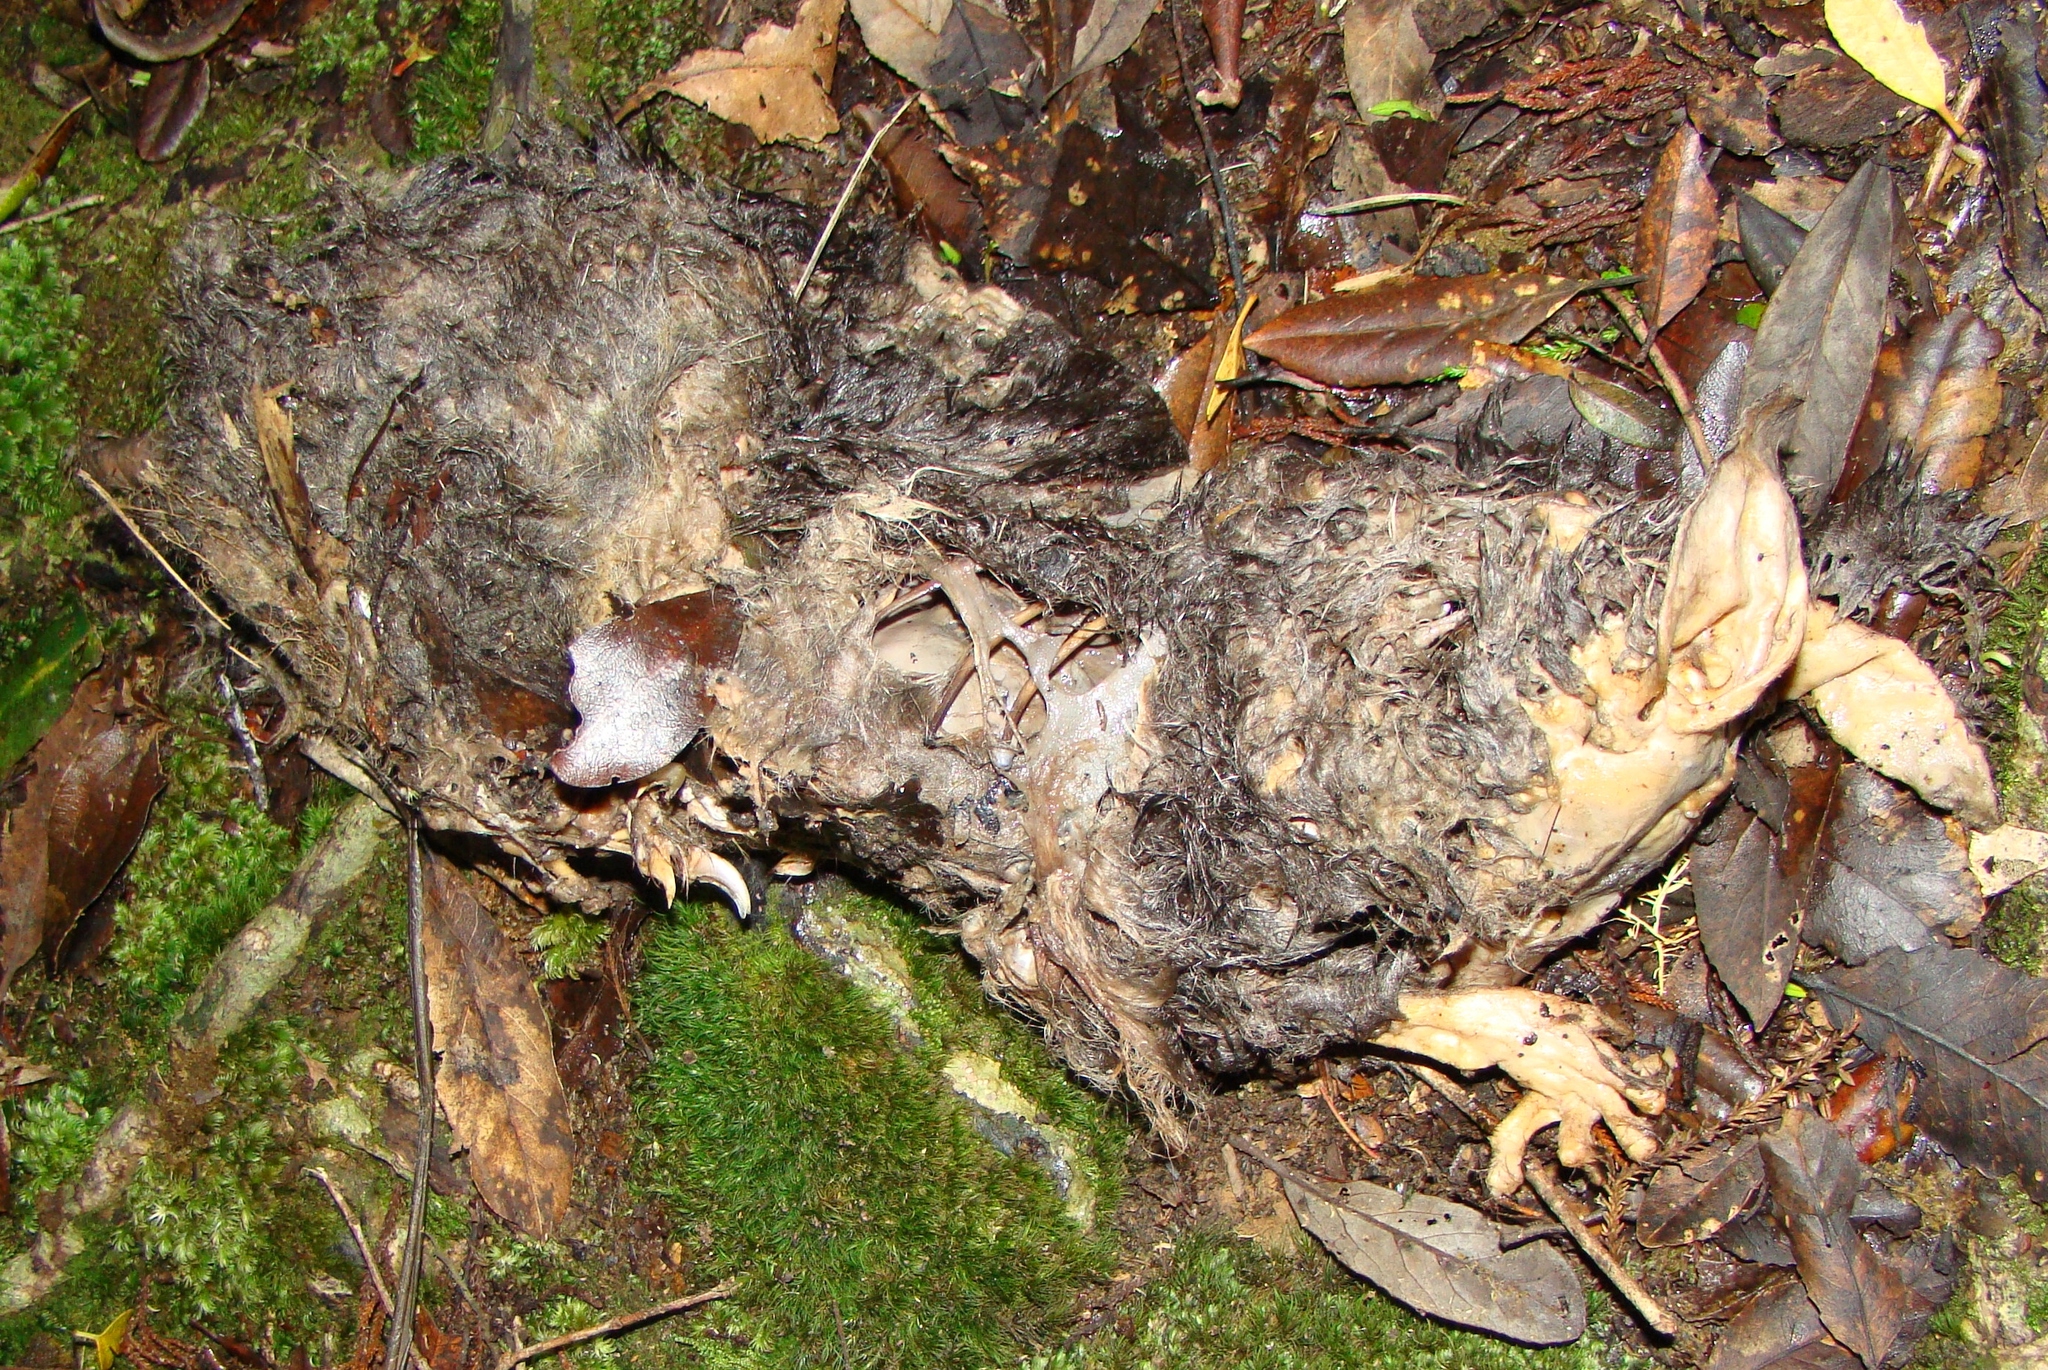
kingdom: Animalia
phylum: Chordata
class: Mammalia
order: Diprotodontia
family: Phalangeridae
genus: Trichosurus
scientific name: Trichosurus vulpecula
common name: Common brushtail
